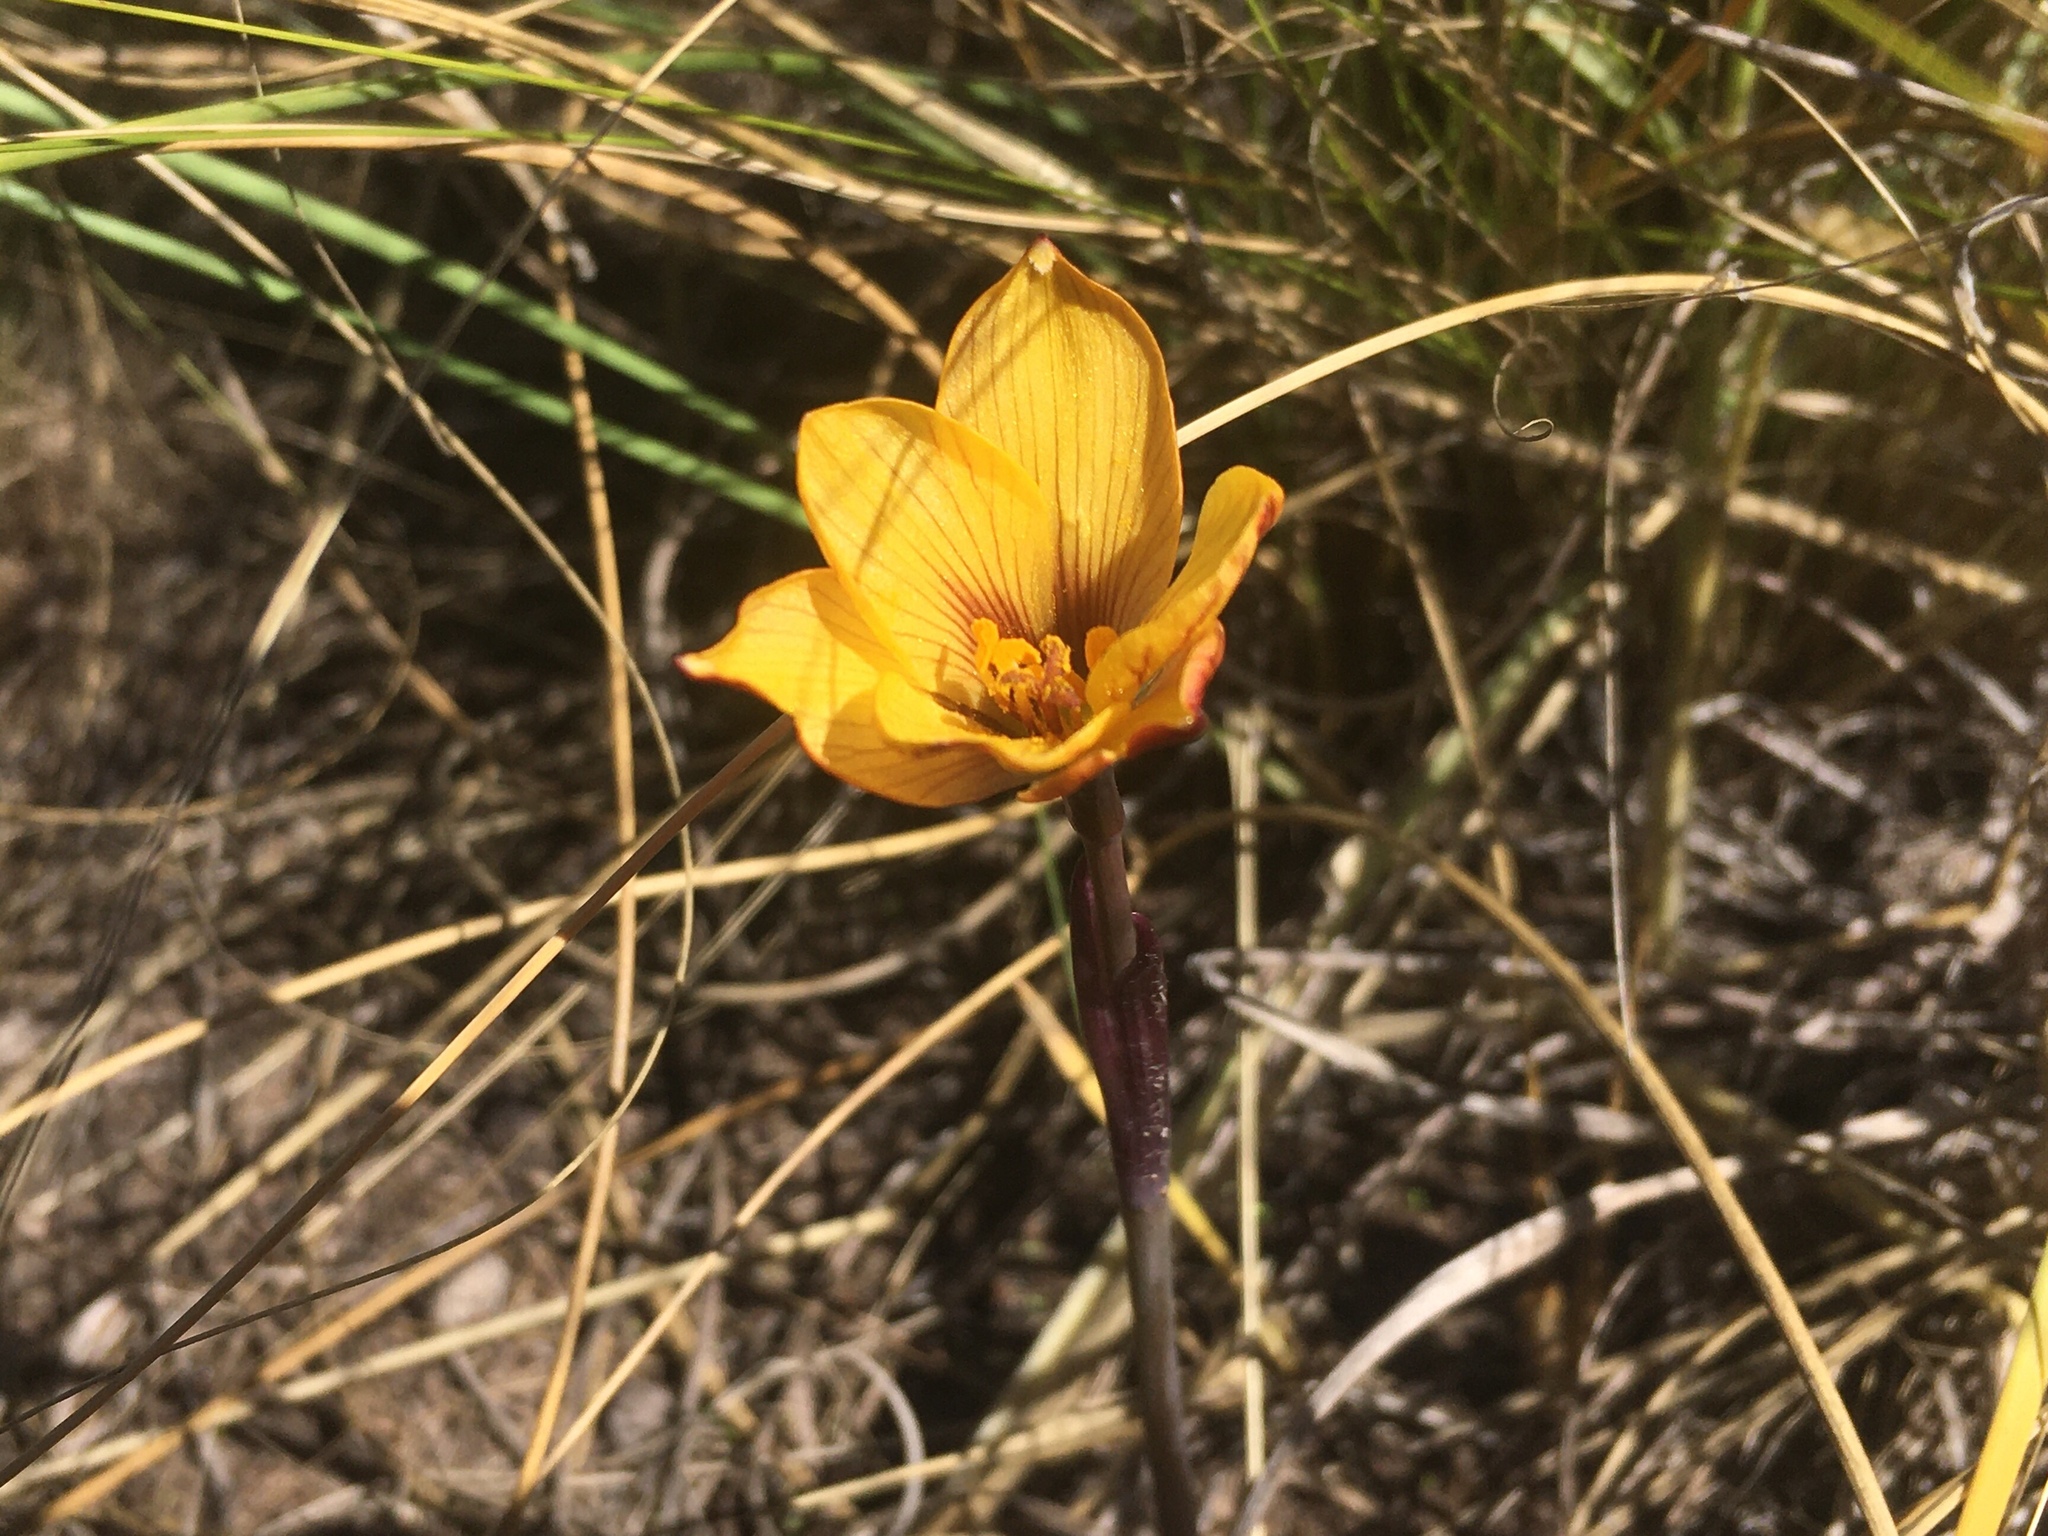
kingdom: Plantae
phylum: Tracheophyta
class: Liliopsida
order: Asparagales
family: Amaryllidaceae
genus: Zephyranthes
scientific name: Zephyranthes tubispatha
